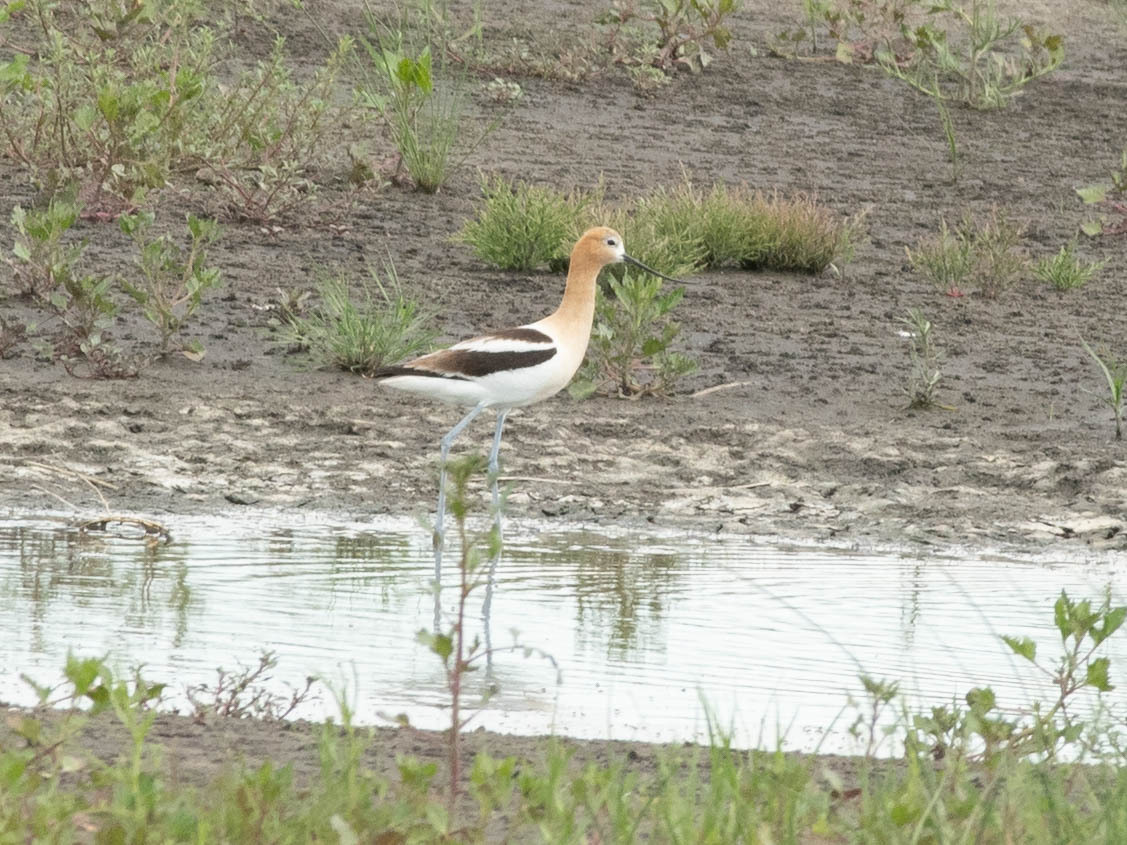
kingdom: Animalia
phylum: Chordata
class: Aves
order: Charadriiformes
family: Recurvirostridae
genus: Recurvirostra
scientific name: Recurvirostra americana
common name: American avocet
